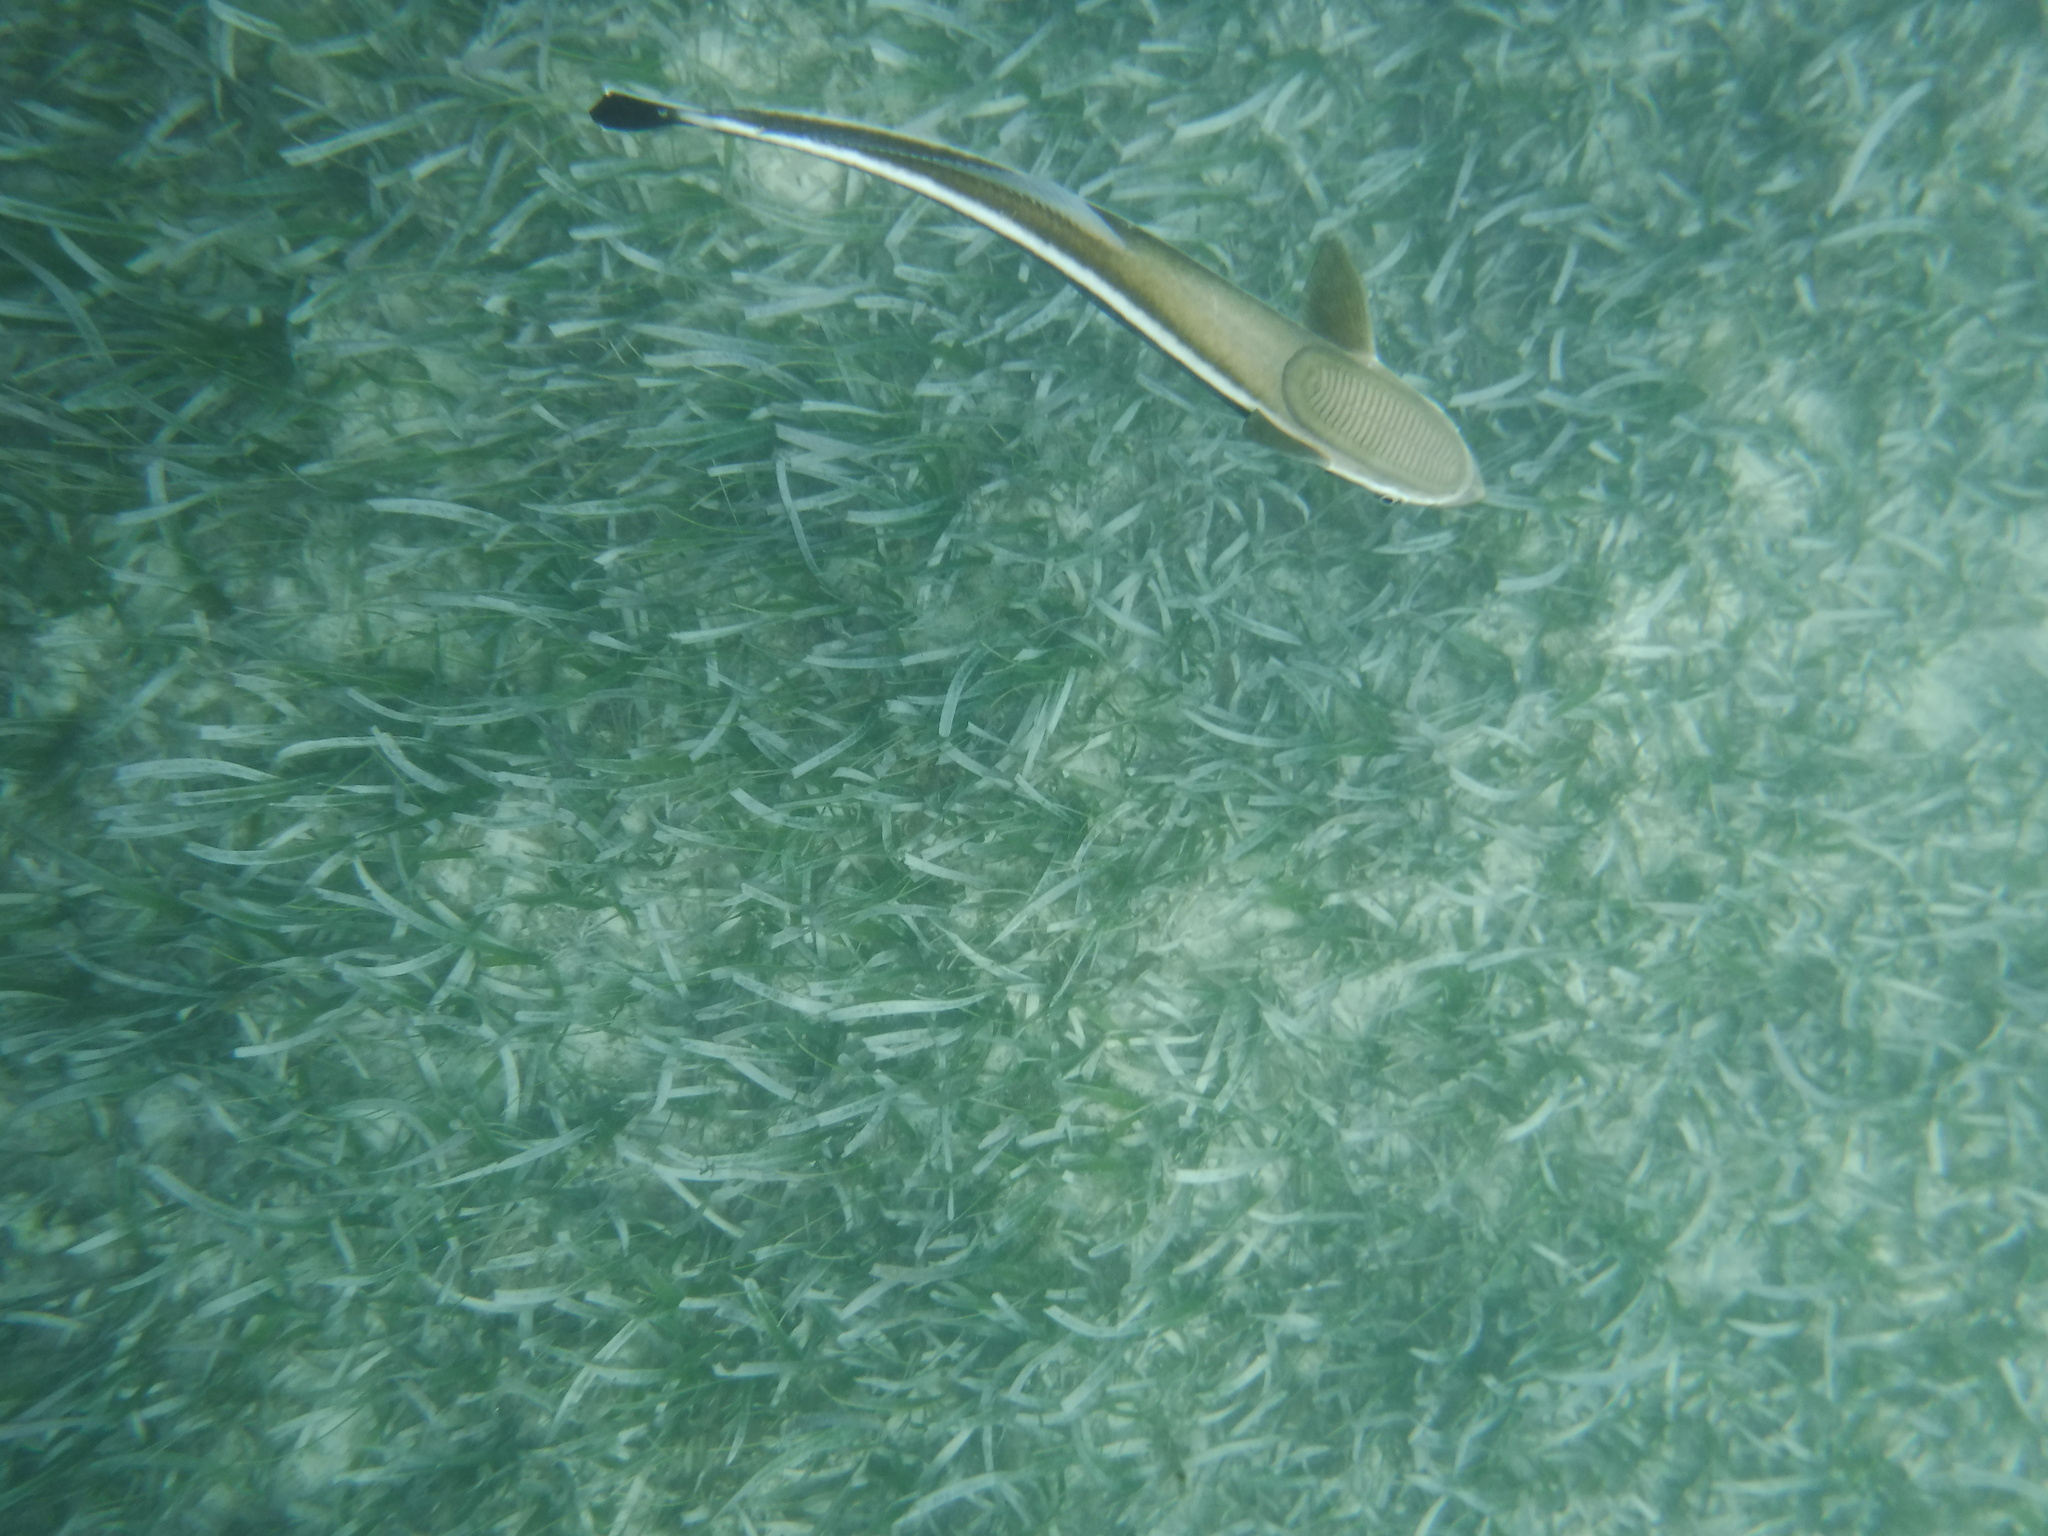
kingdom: Animalia
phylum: Chordata
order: Perciformes
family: Echeneidae
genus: Echeneis
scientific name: Echeneis naucrates
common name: Sharksucker
